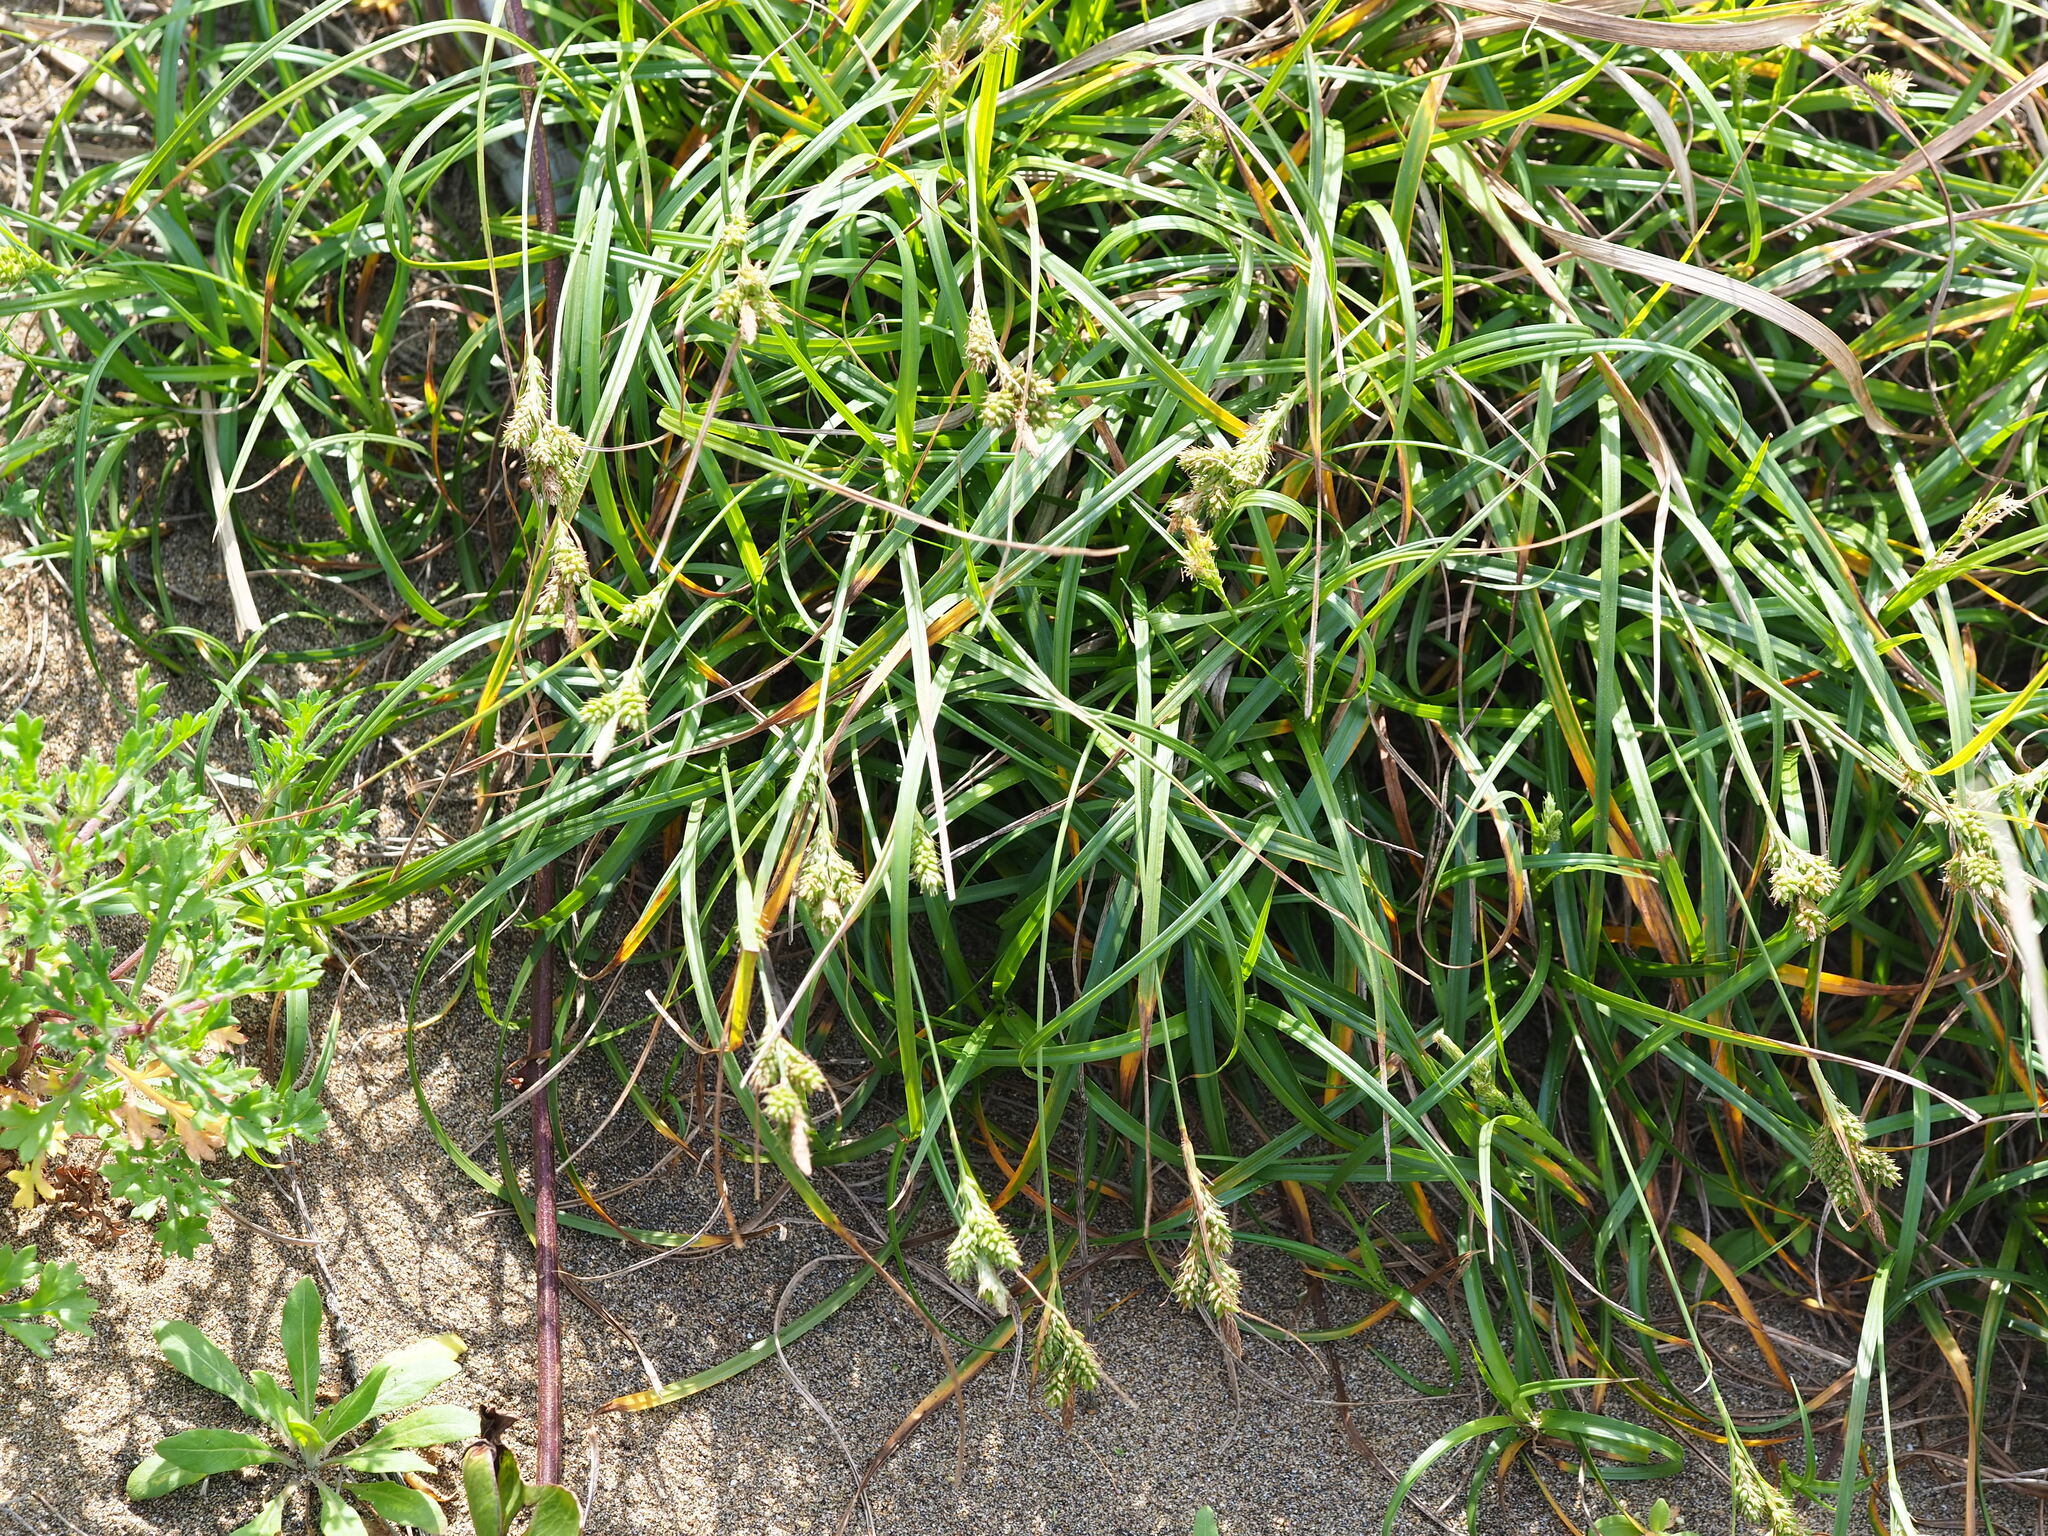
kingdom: Plantae
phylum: Tracheophyta
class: Liliopsida
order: Poales
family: Cyperaceae
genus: Carex
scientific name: Carex fibrillosa
